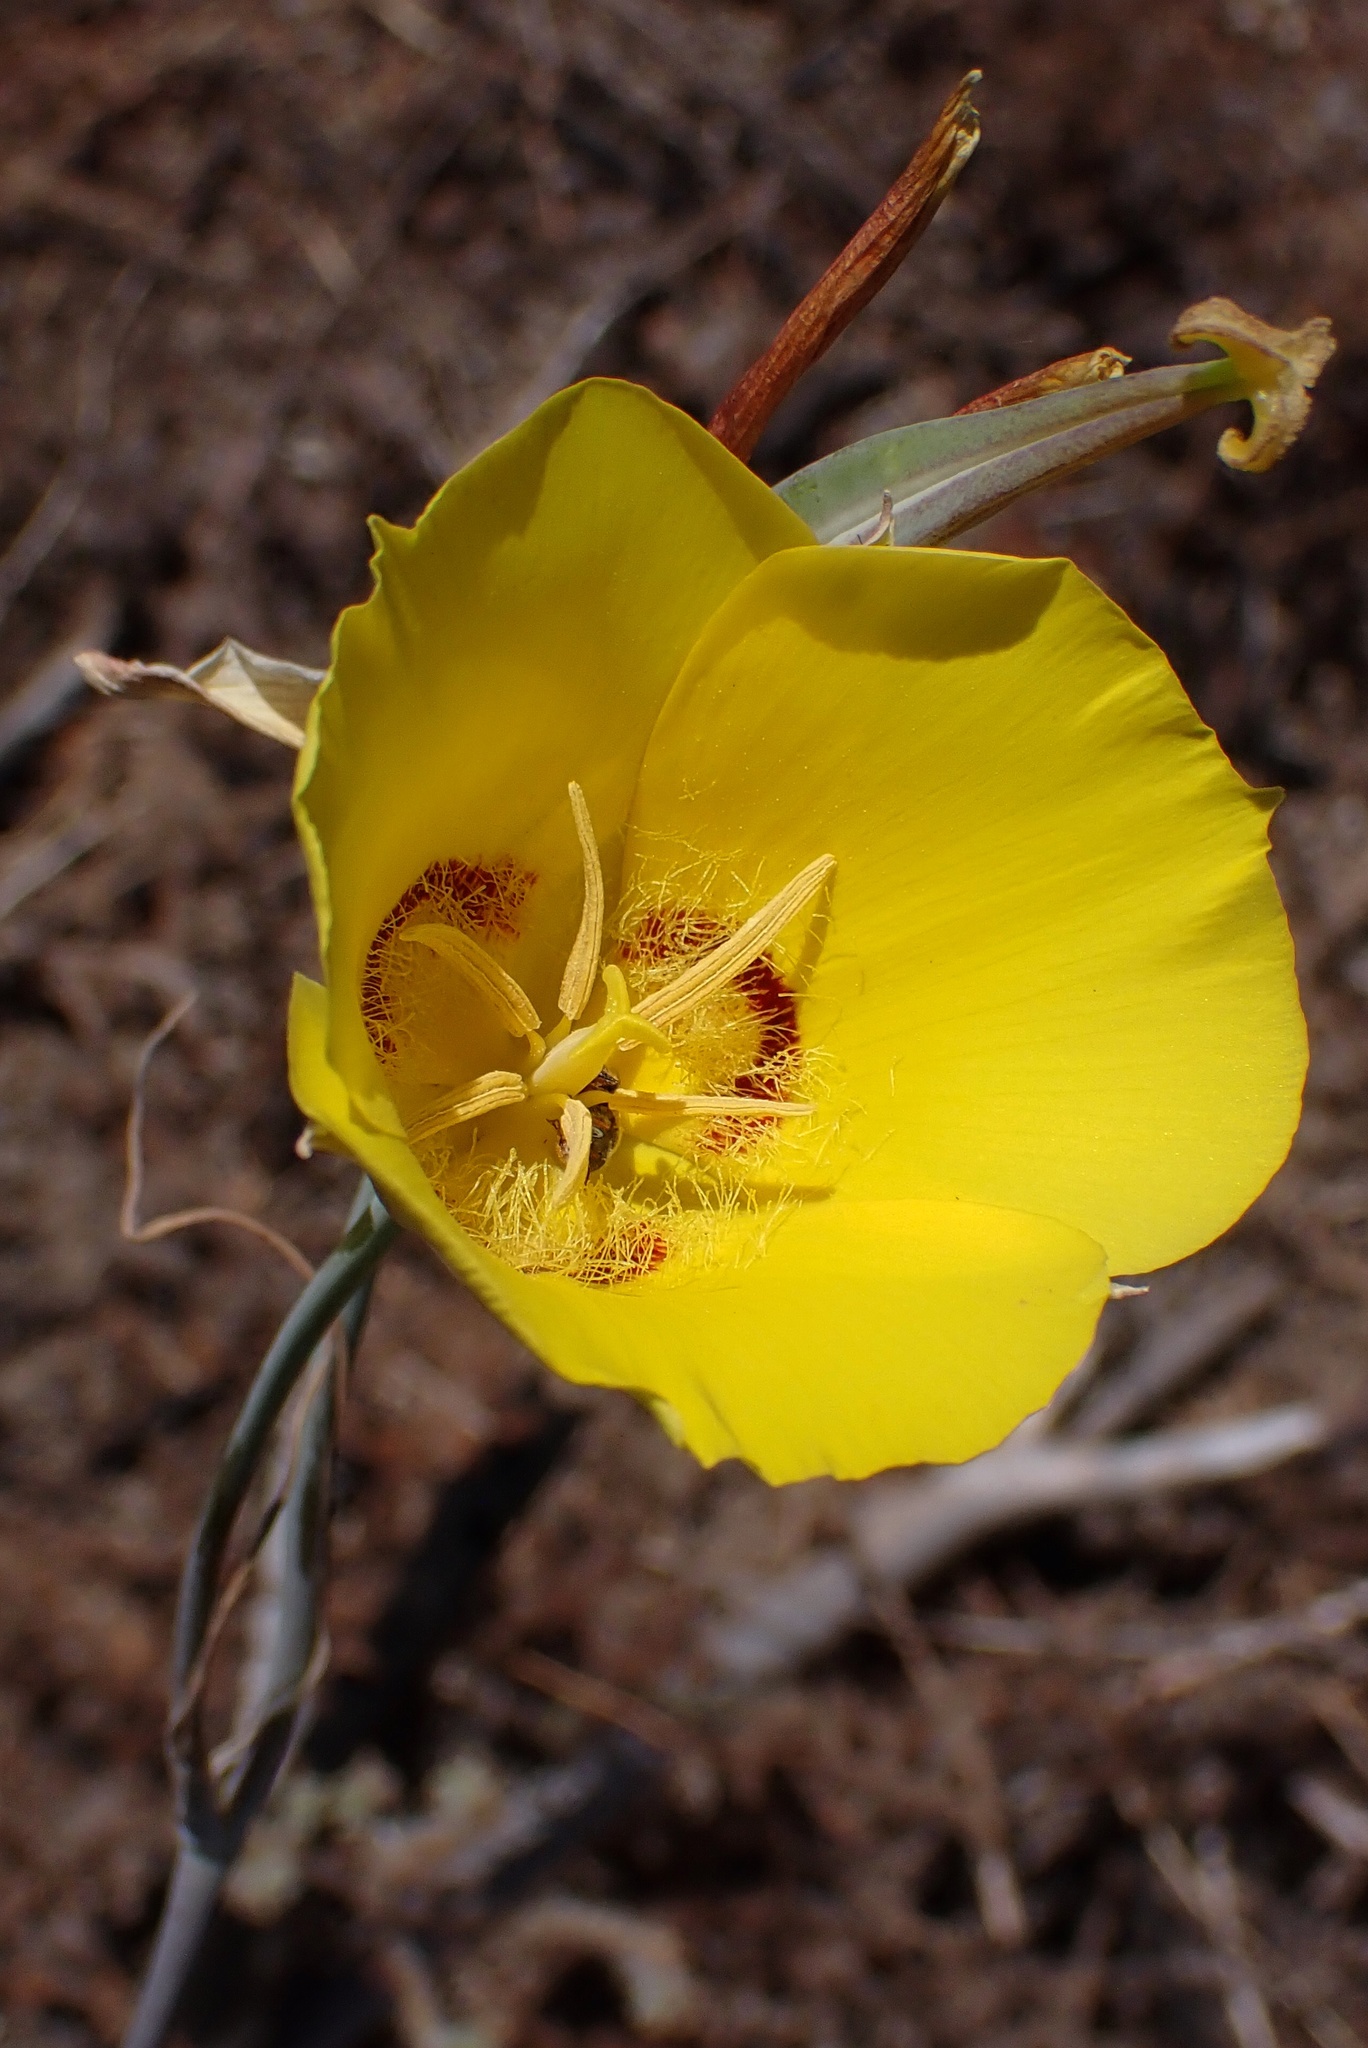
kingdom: Plantae
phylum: Tracheophyta
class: Liliopsida
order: Liliales
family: Liliaceae
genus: Calochortus
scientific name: Calochortus concolor
